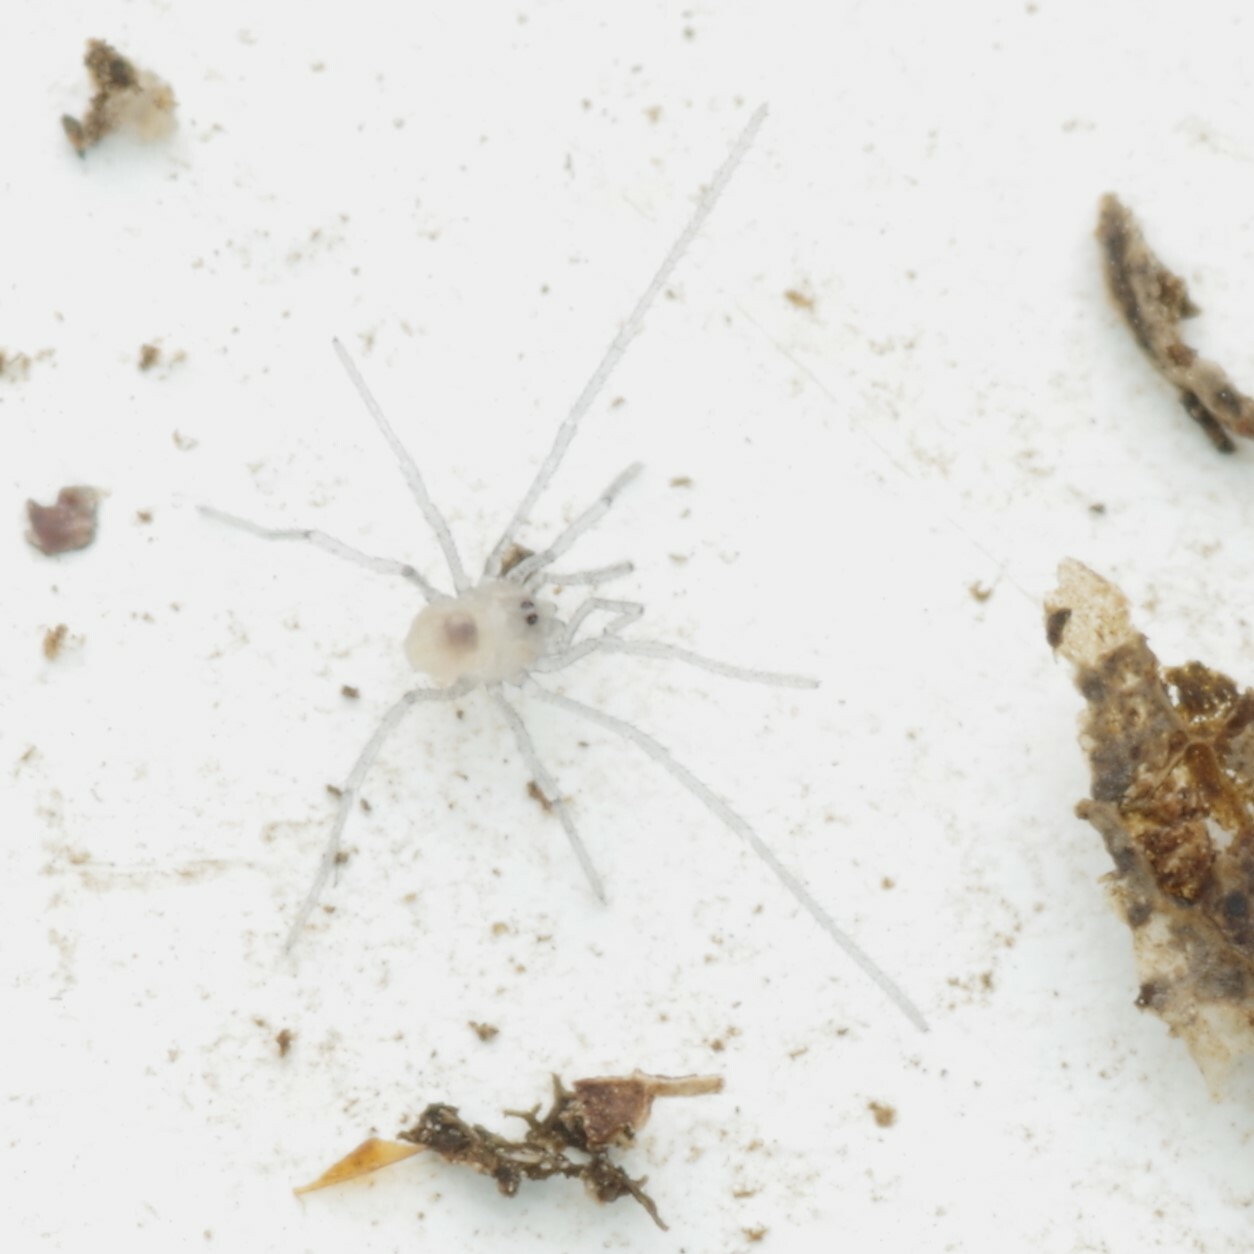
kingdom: Animalia
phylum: Arthropoda
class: Arachnida
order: Opiliones
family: Nemastomatidae
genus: Mitostoma
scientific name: Mitostoma chrysomelas
